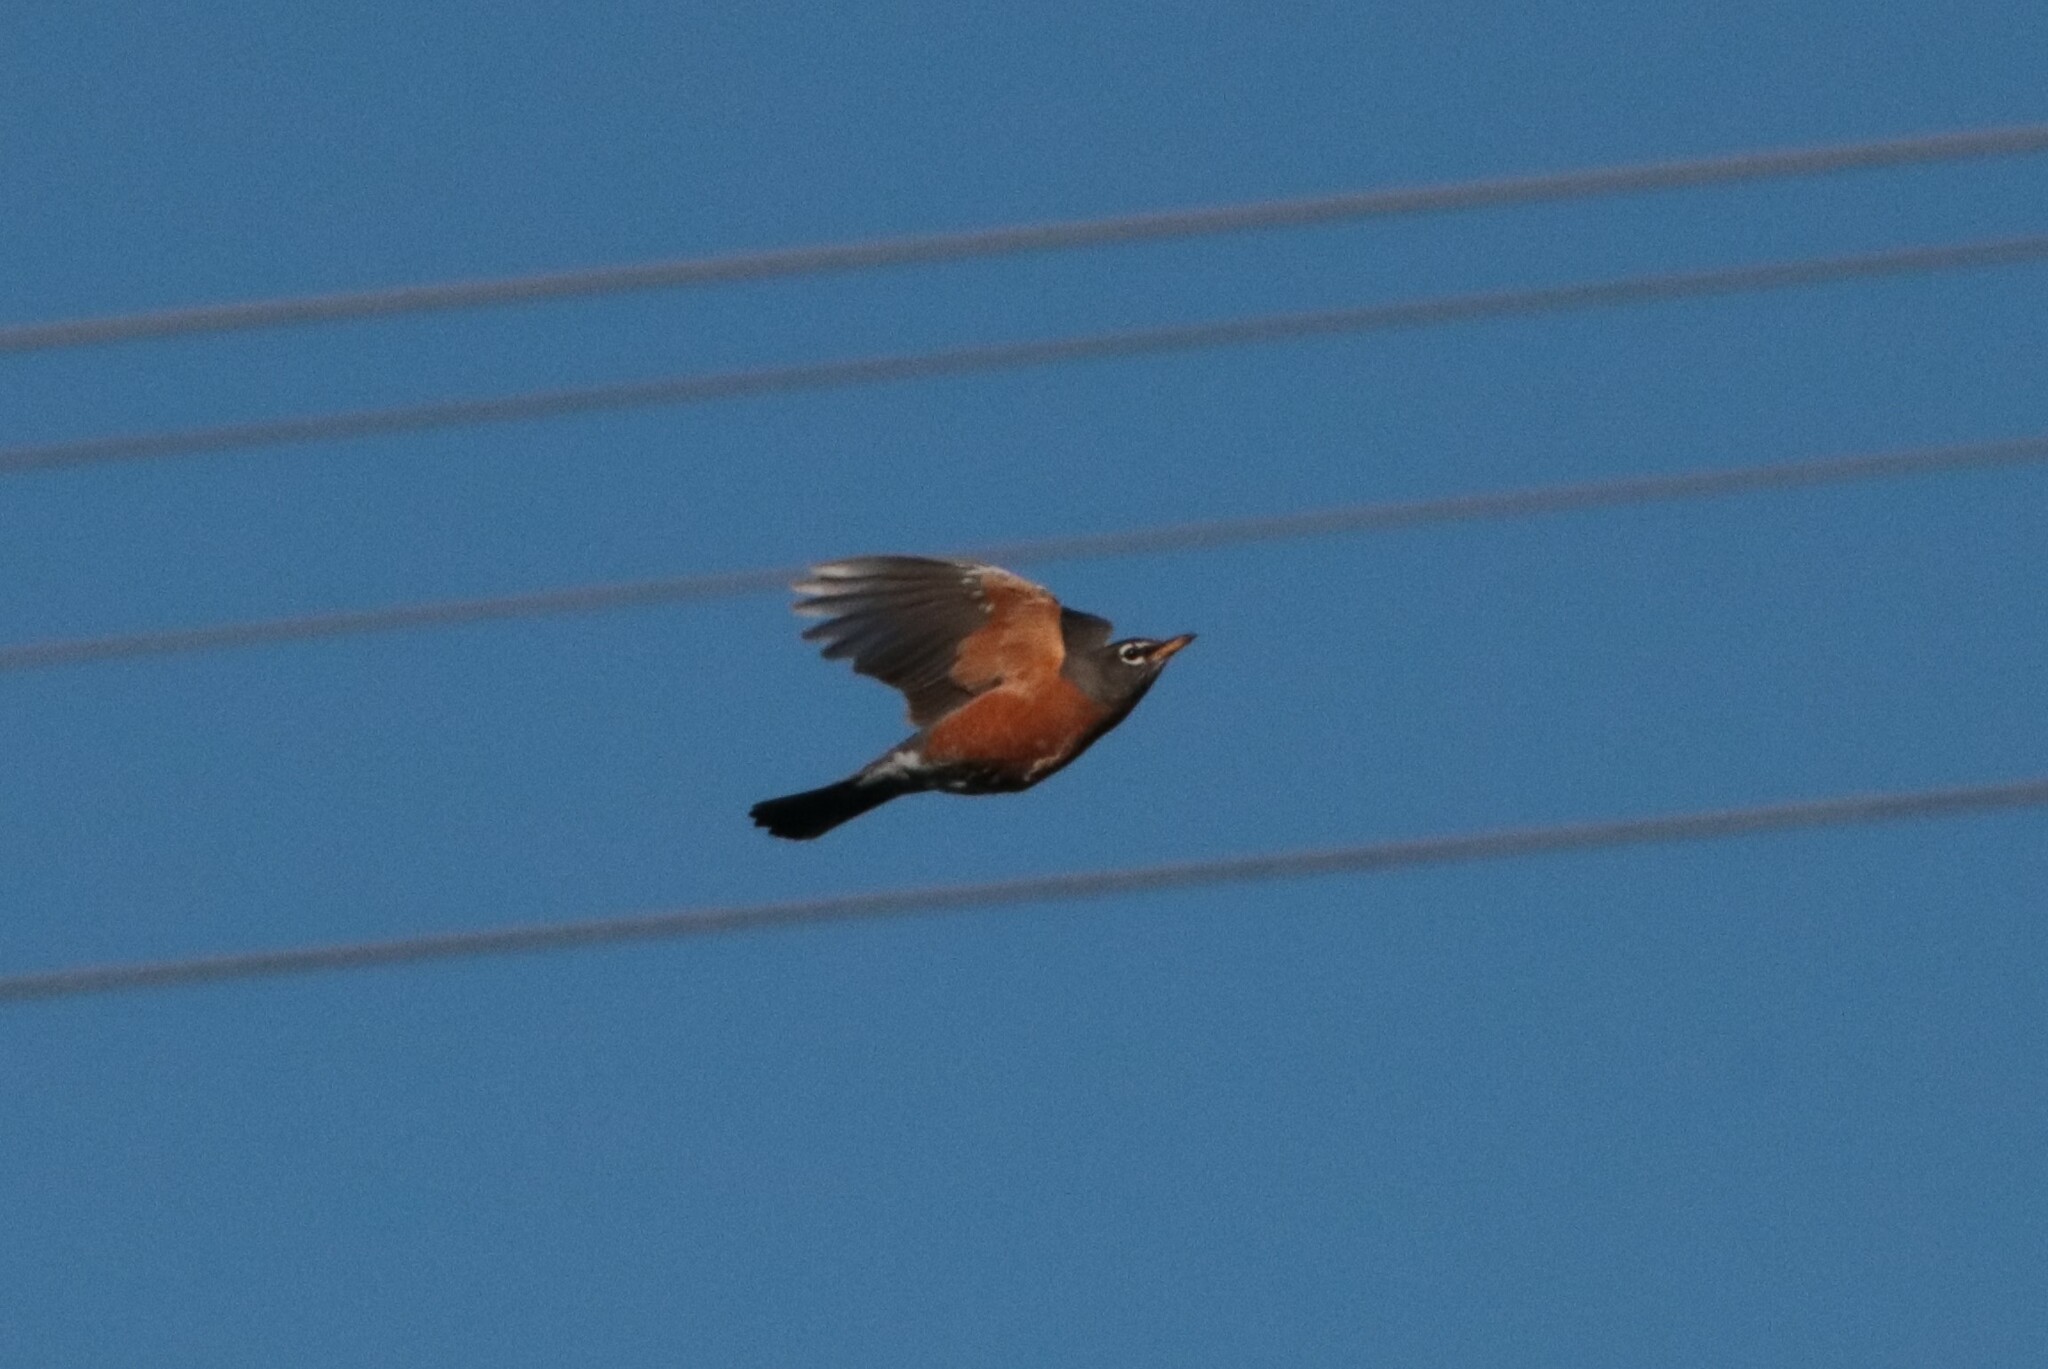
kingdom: Animalia
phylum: Chordata
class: Aves
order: Passeriformes
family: Turdidae
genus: Turdus
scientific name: Turdus migratorius
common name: American robin
